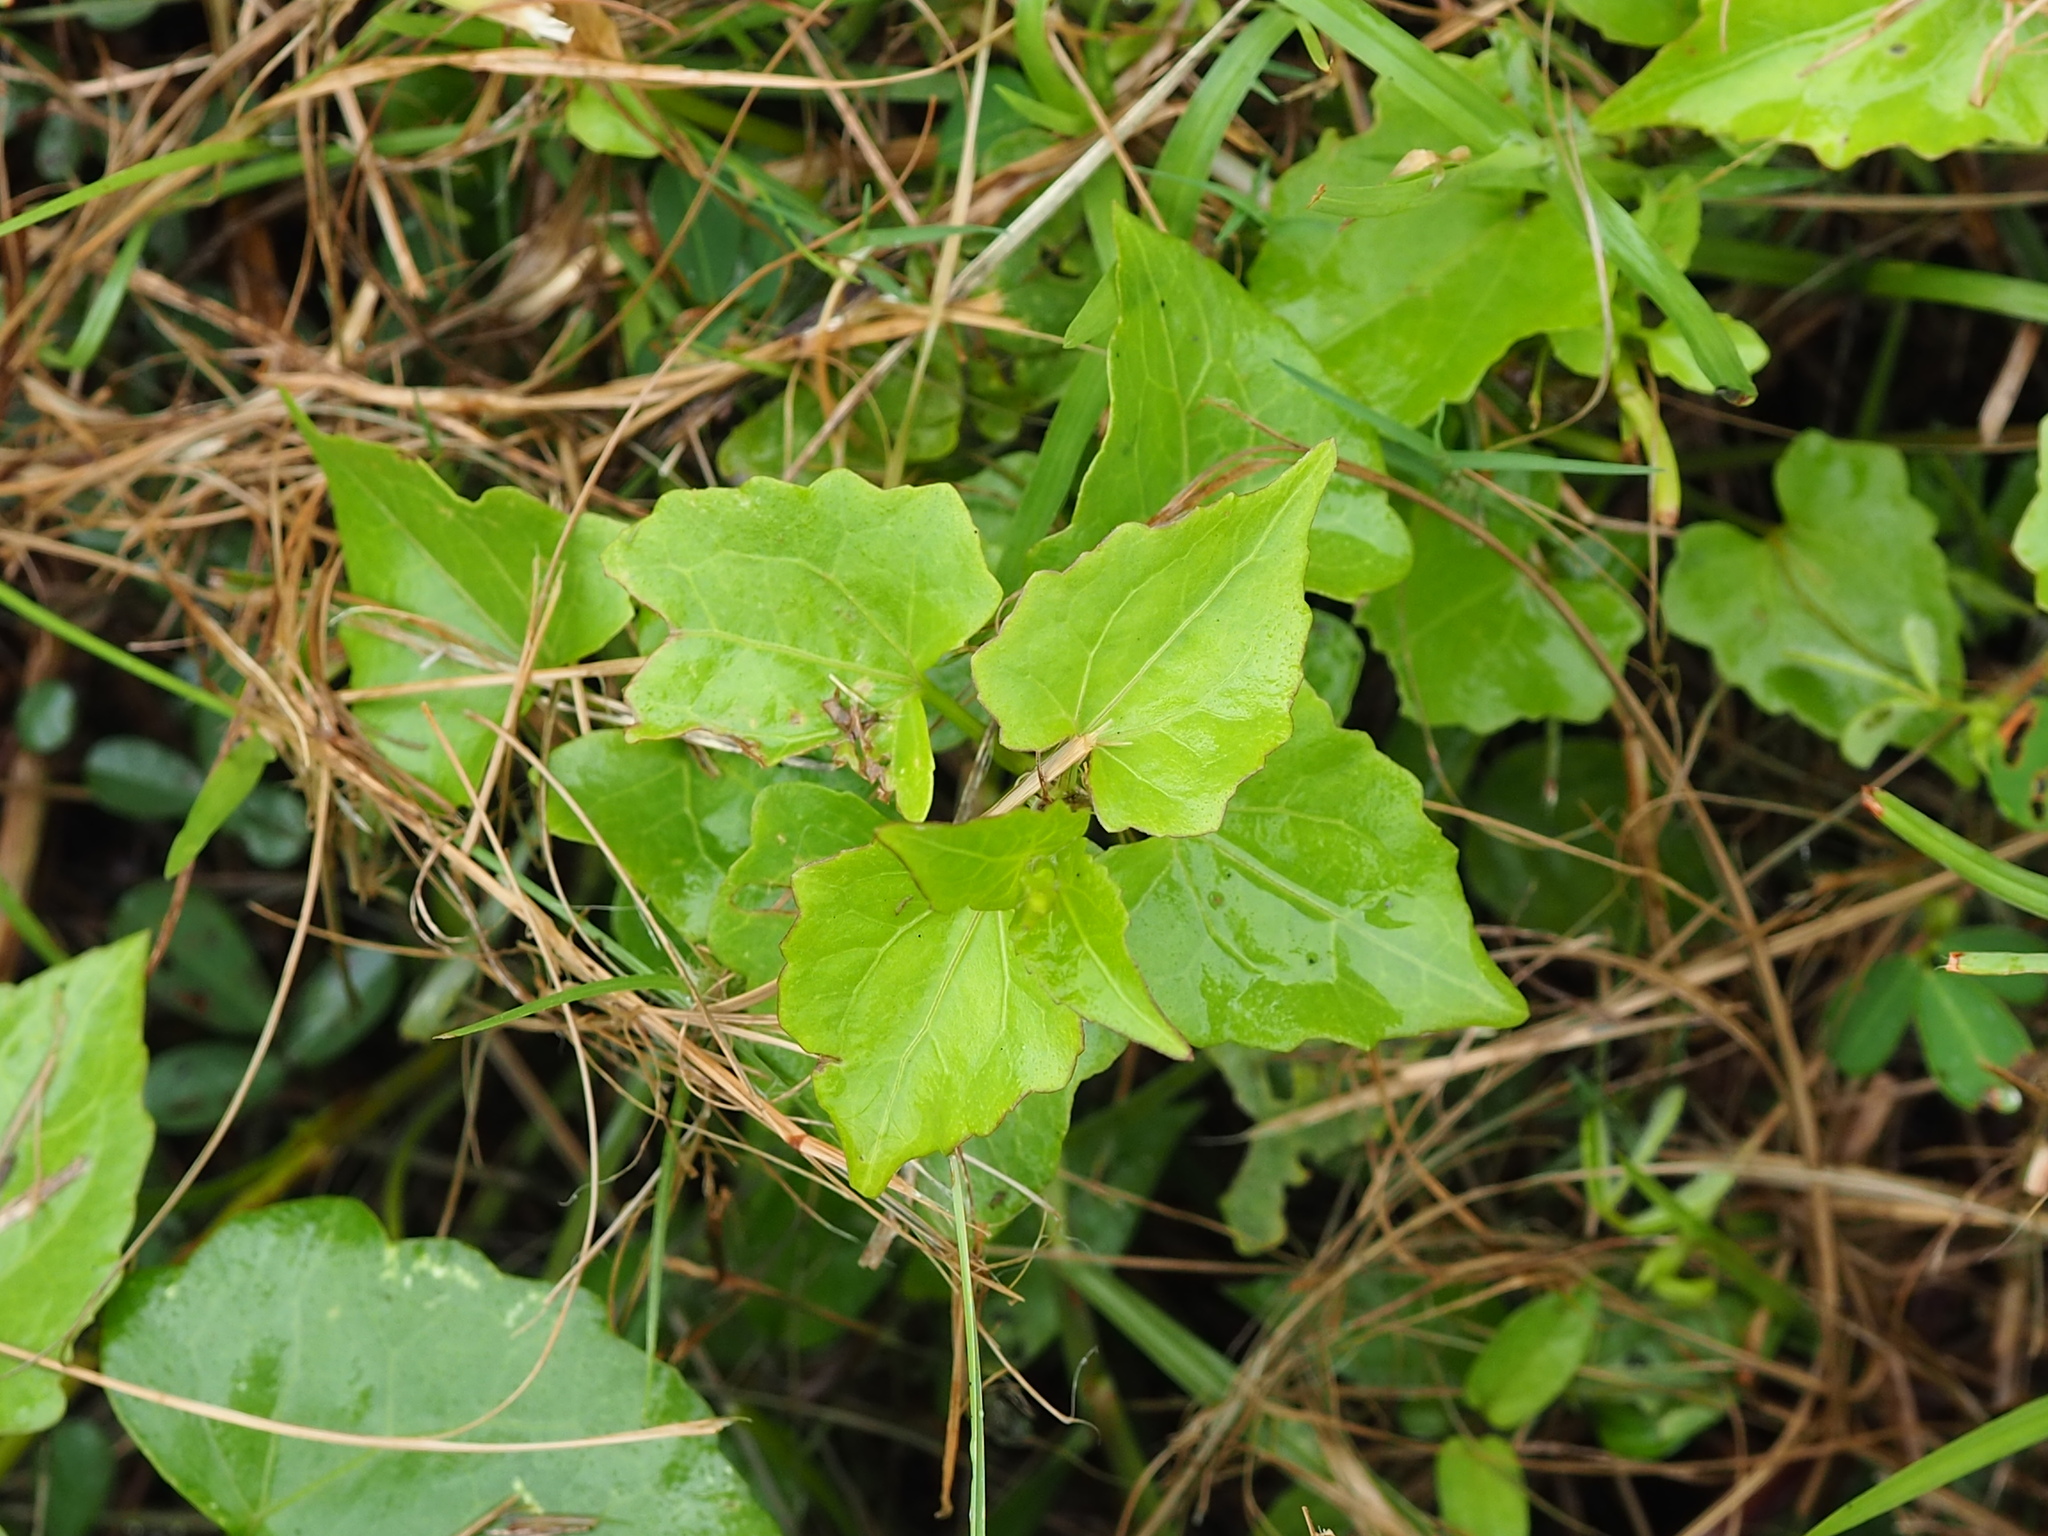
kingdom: Plantae
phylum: Tracheophyta
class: Magnoliopsida
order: Asterales
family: Asteraceae
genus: Mikania
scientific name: Mikania micrantha
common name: Mile-a-minute
